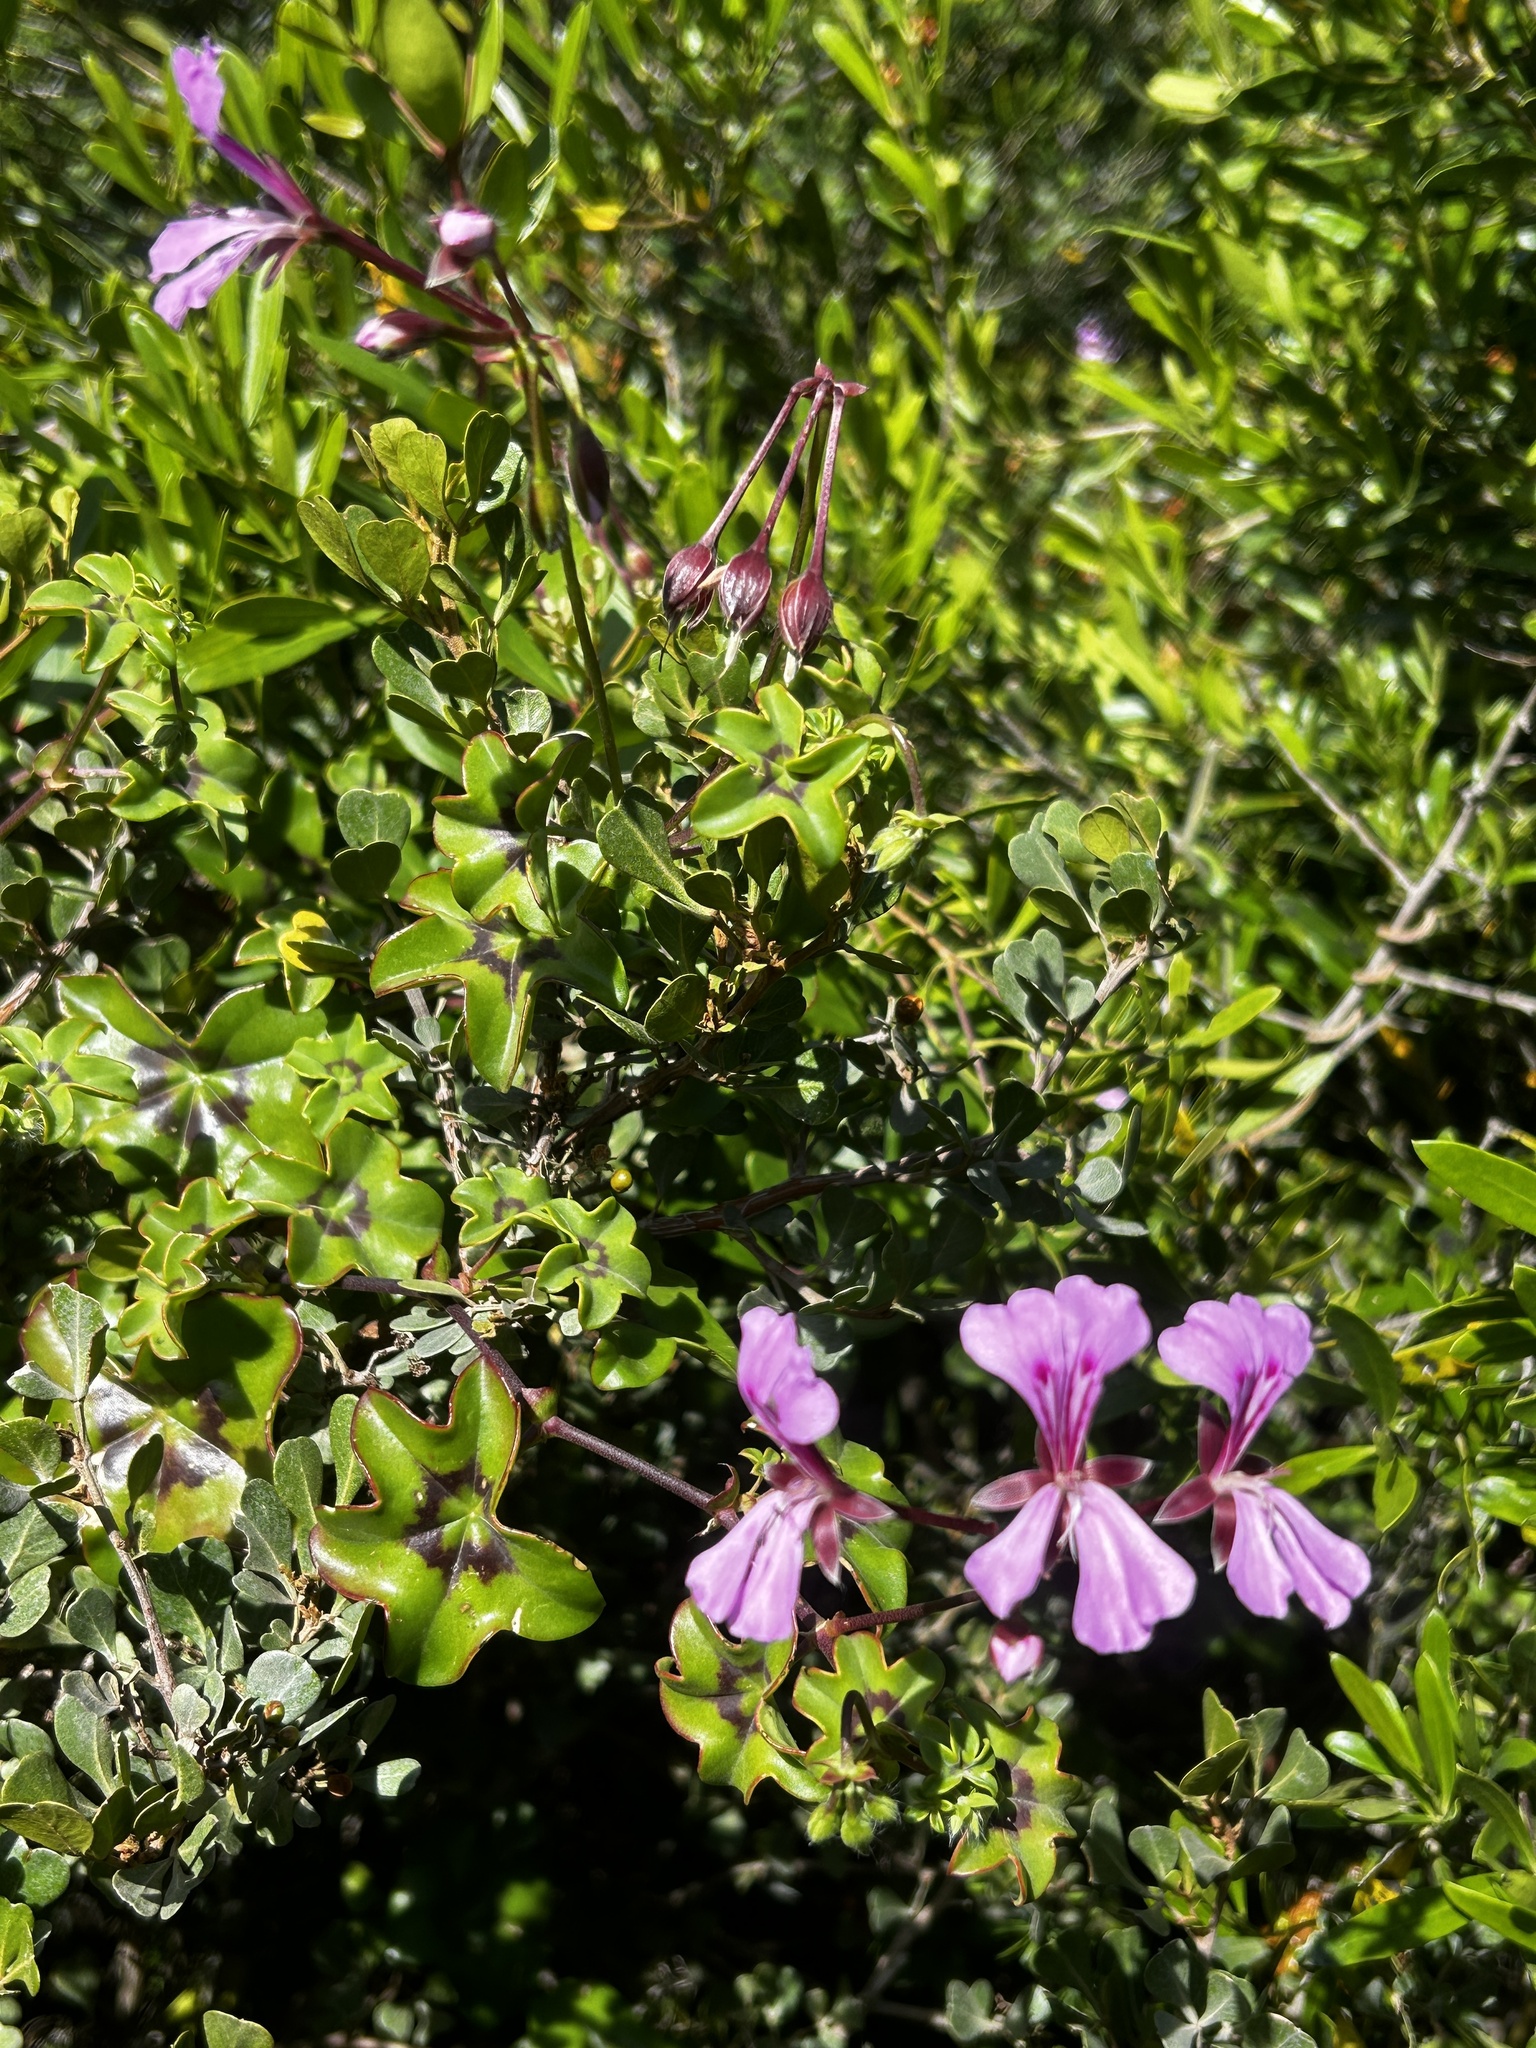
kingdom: Plantae
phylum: Tracheophyta
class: Magnoliopsida
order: Geraniales
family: Geraniaceae
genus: Pelargonium
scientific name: Pelargonium peltatum
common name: Ivyleaf geranium
